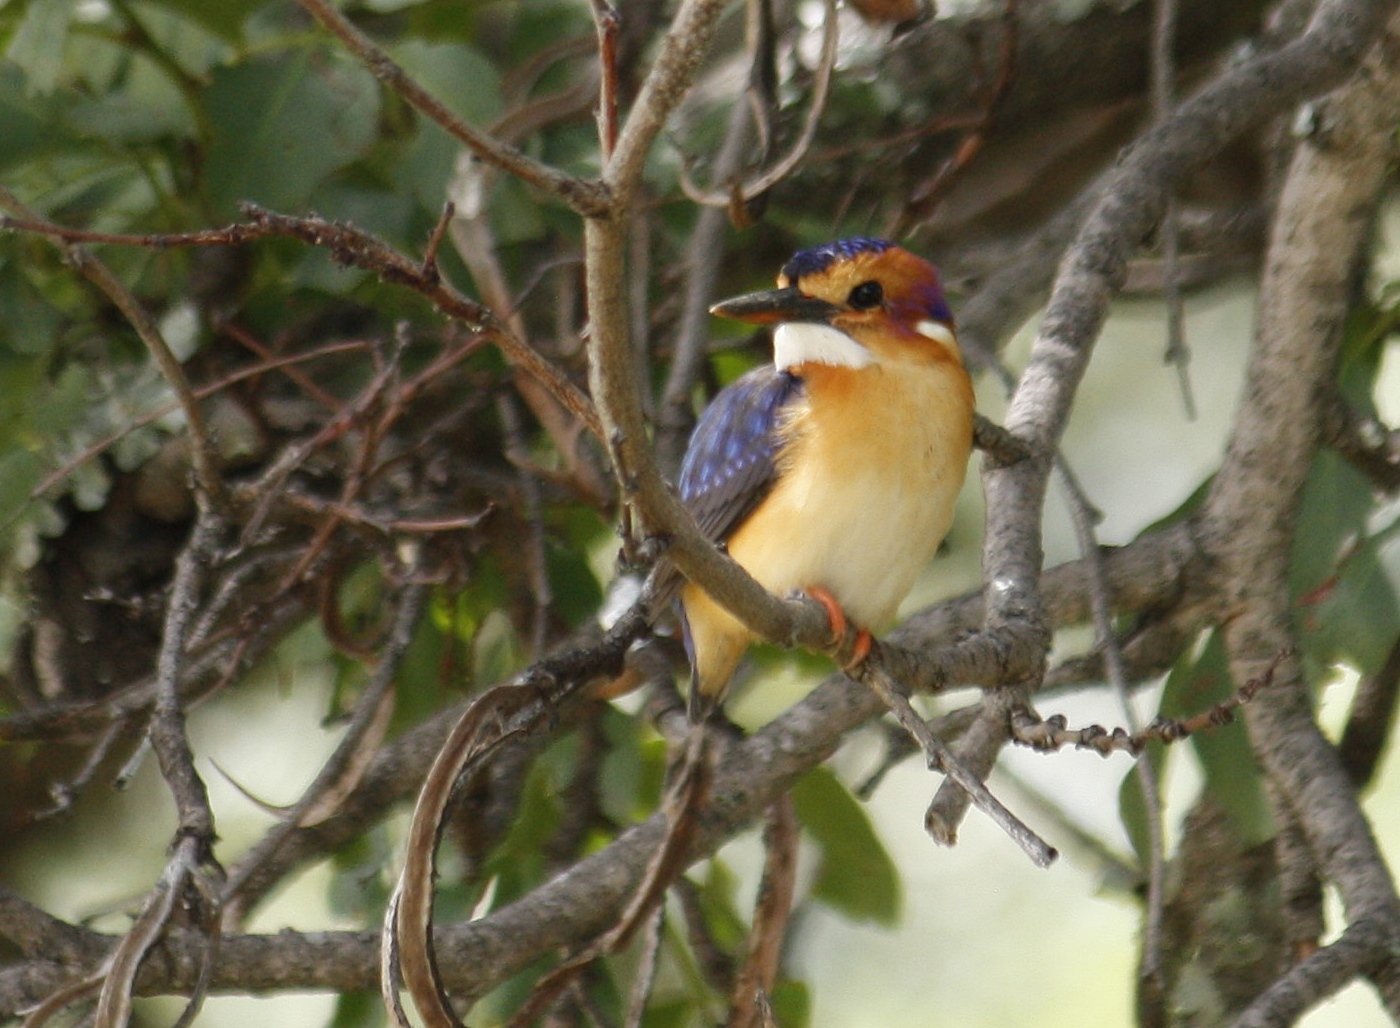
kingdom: Animalia
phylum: Chordata
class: Aves
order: Coraciiformes
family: Alcedinidae
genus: Ispidina
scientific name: Ispidina picta
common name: African pygmy-kingfisher
